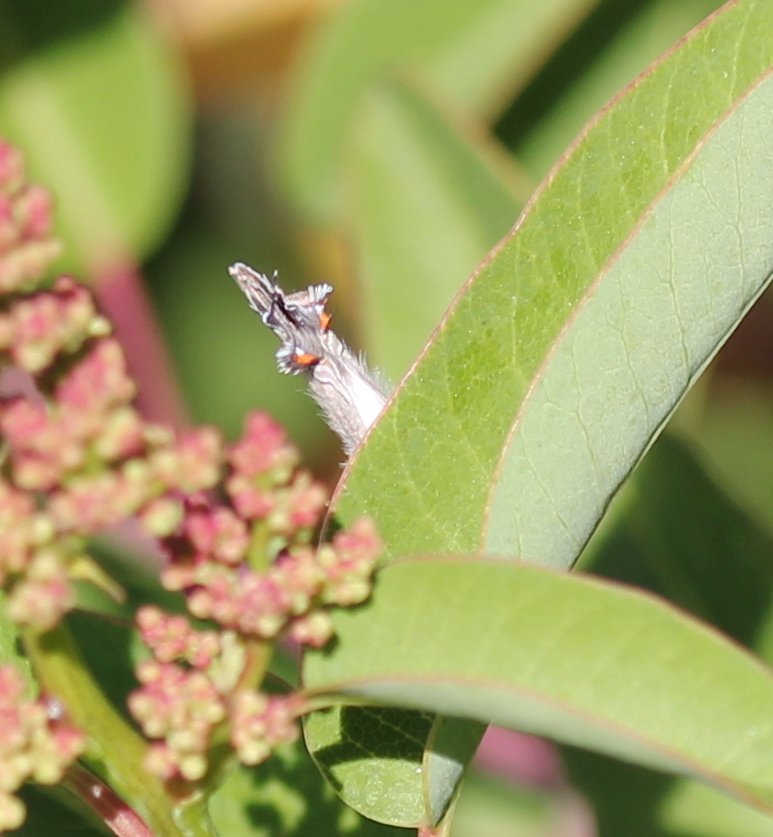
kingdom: Animalia
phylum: Arthropoda
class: Insecta
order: Lepidoptera
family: Lycaenidae
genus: Strymon
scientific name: Strymon melinus
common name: Gray hairstreak
